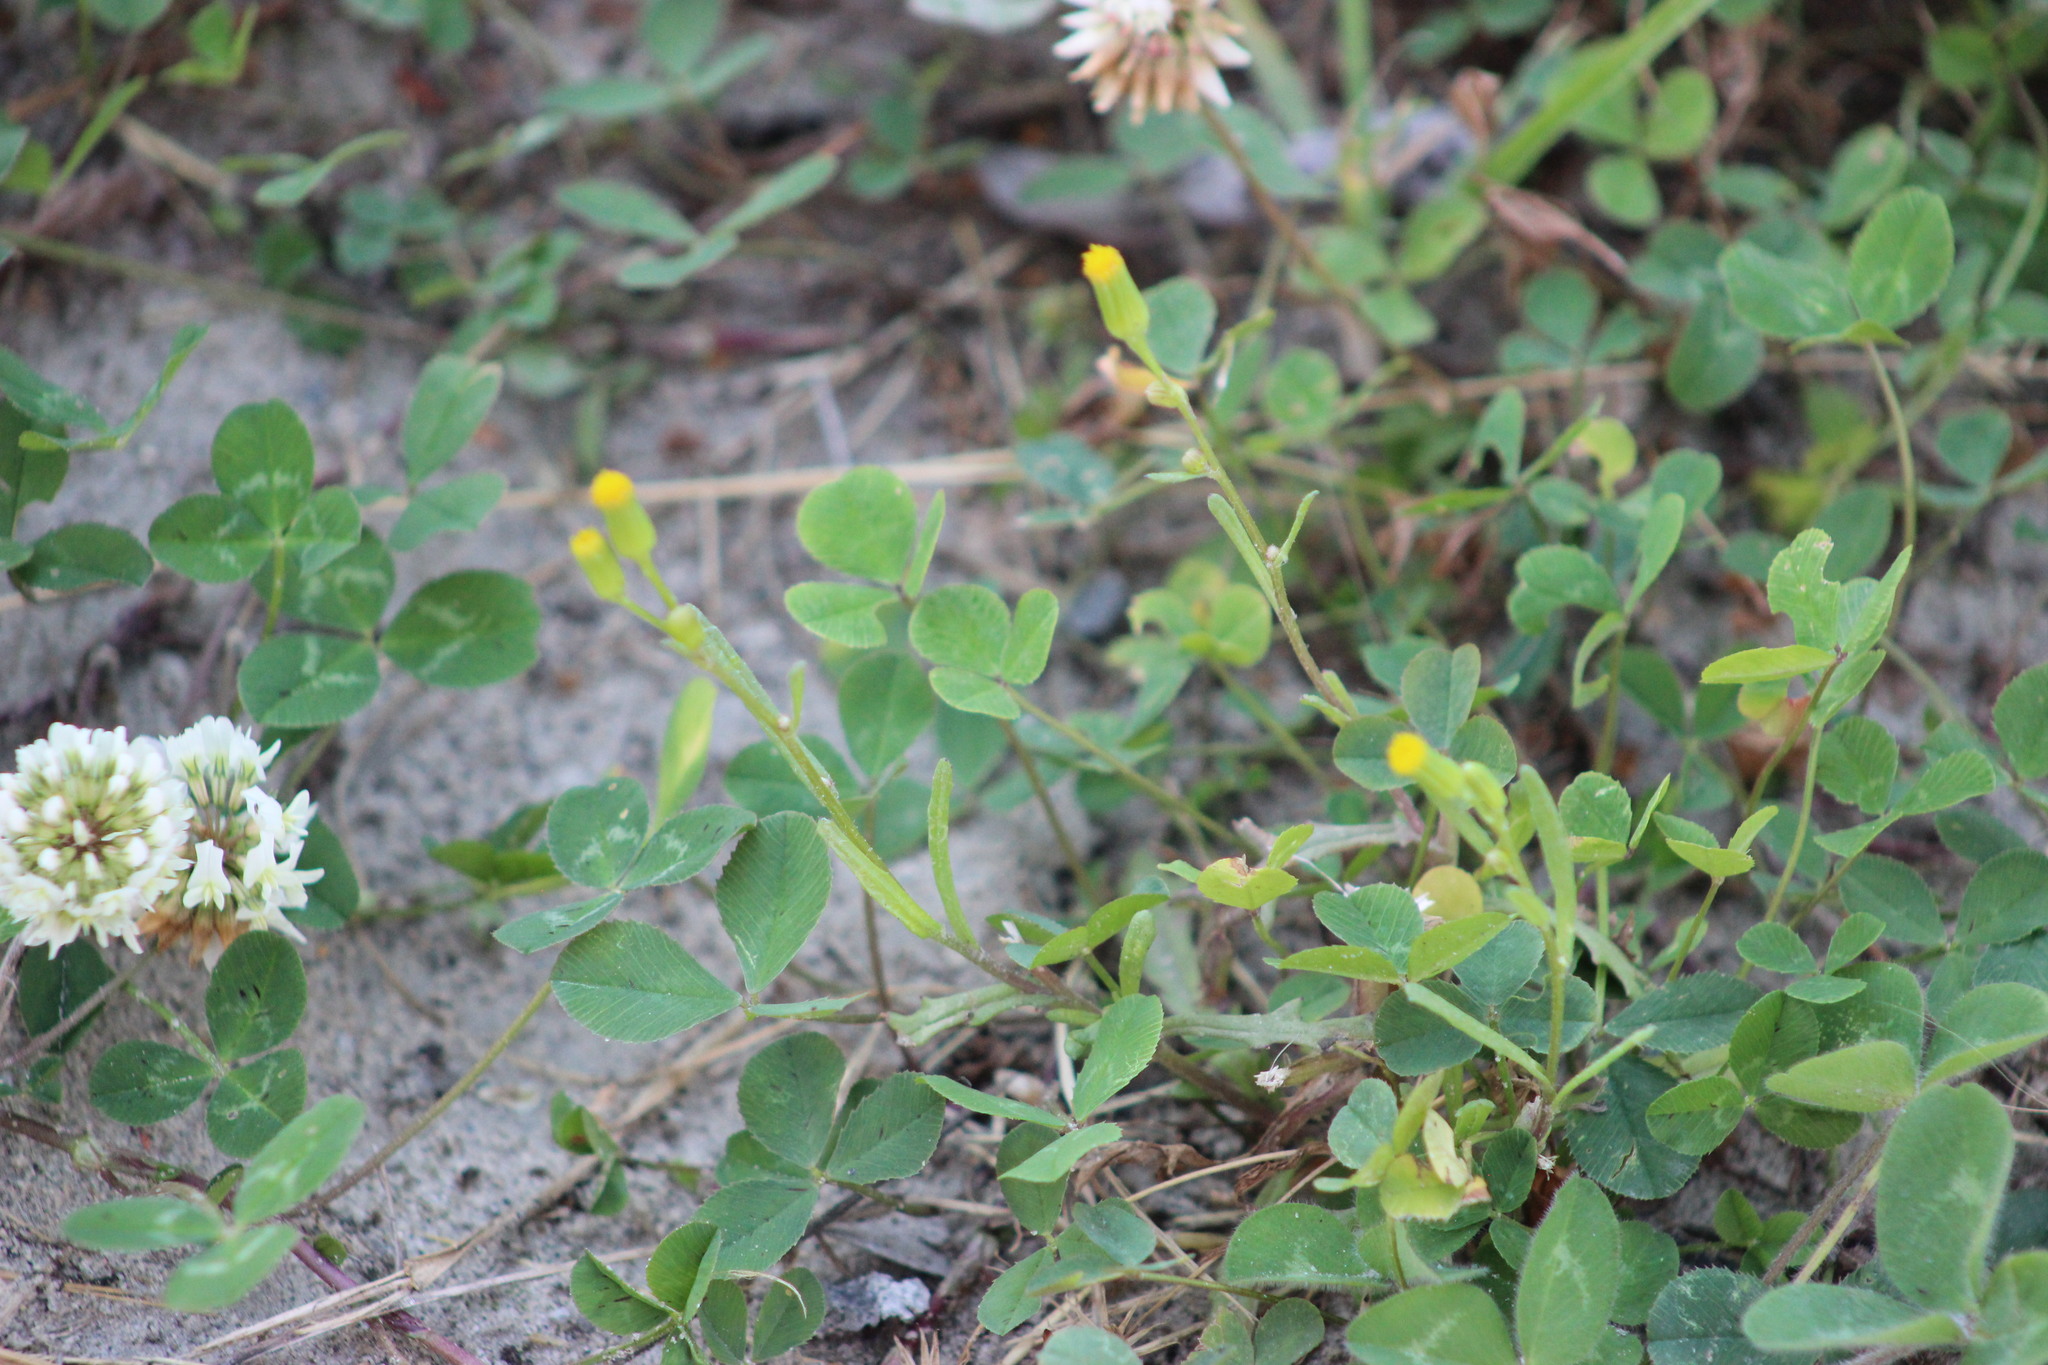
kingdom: Plantae
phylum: Tracheophyta
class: Magnoliopsida
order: Asterales
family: Asteraceae
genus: Senecio
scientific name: Senecio dubitabilis
